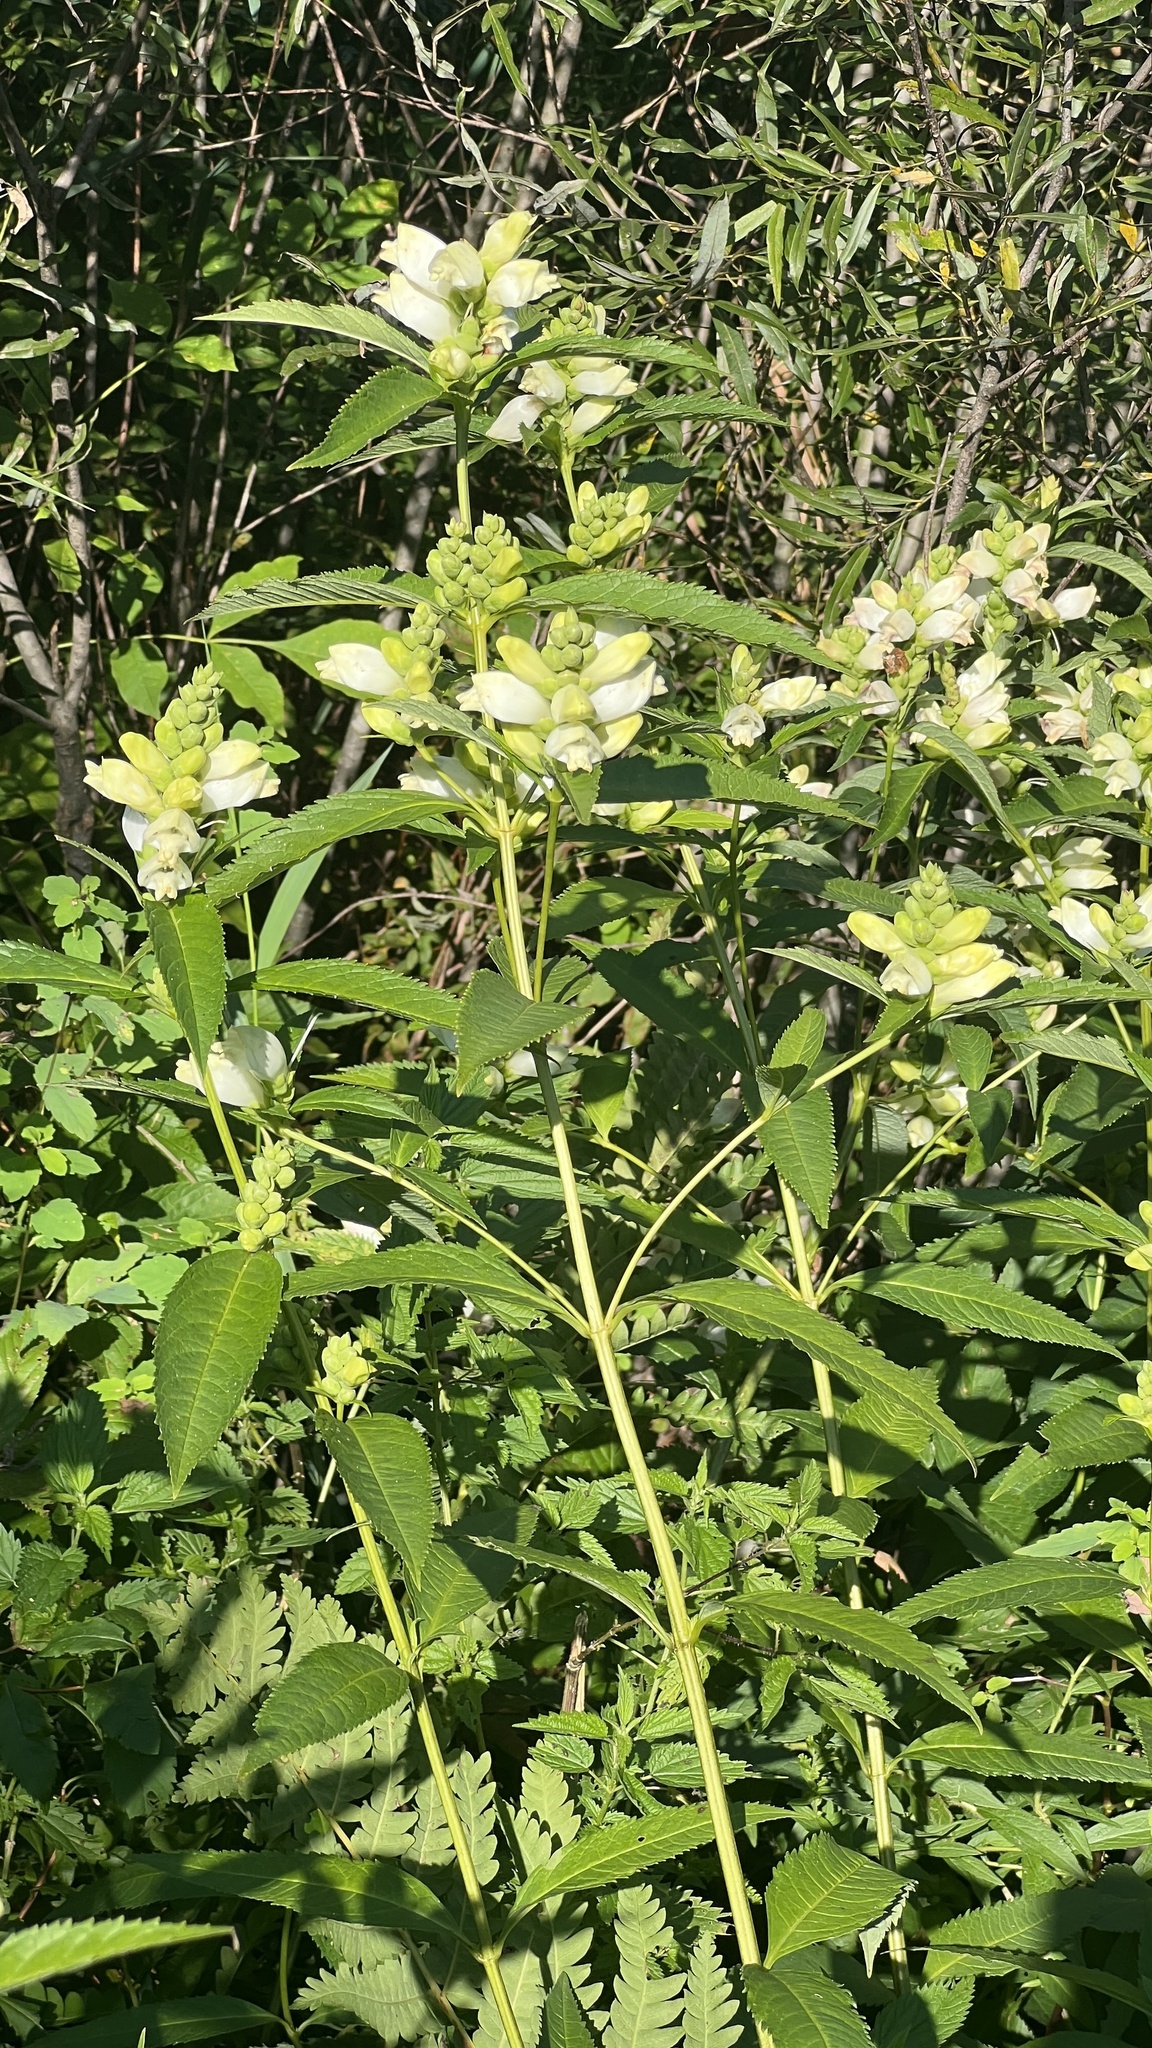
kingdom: Plantae
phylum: Tracheophyta
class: Magnoliopsida
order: Lamiales
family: Plantaginaceae
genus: Chelone
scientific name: Chelone glabra
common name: Snakehead
